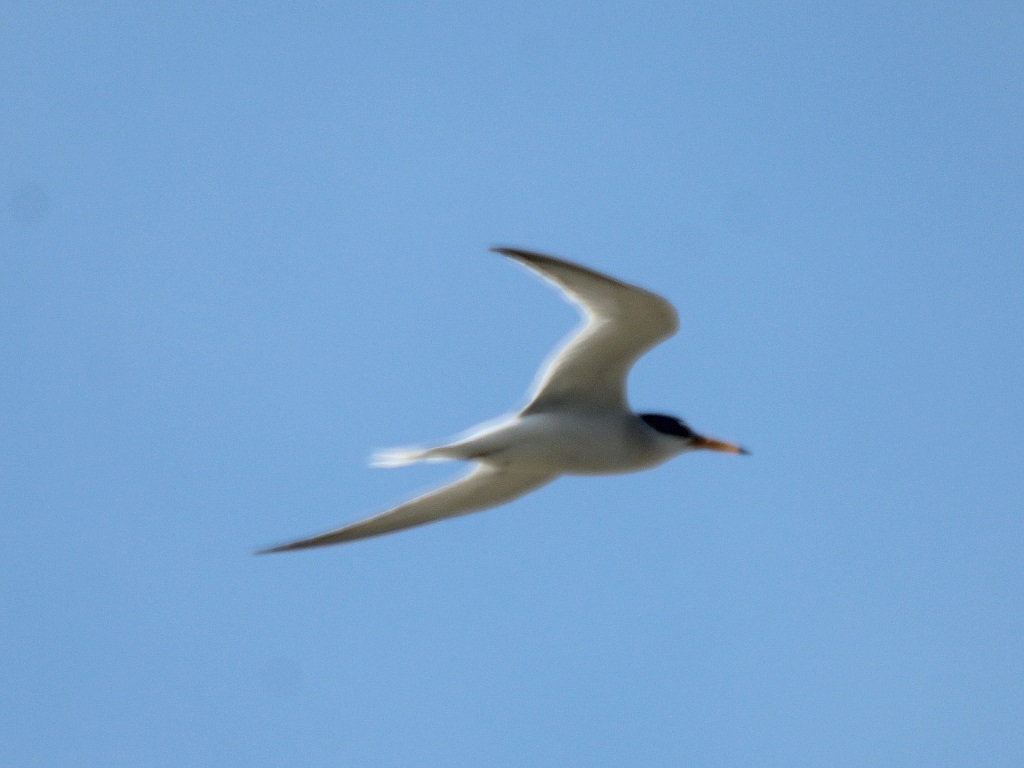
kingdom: Animalia
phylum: Chordata
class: Aves
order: Charadriiformes
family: Laridae
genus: Sternula
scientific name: Sternula albifrons
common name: Little tern
